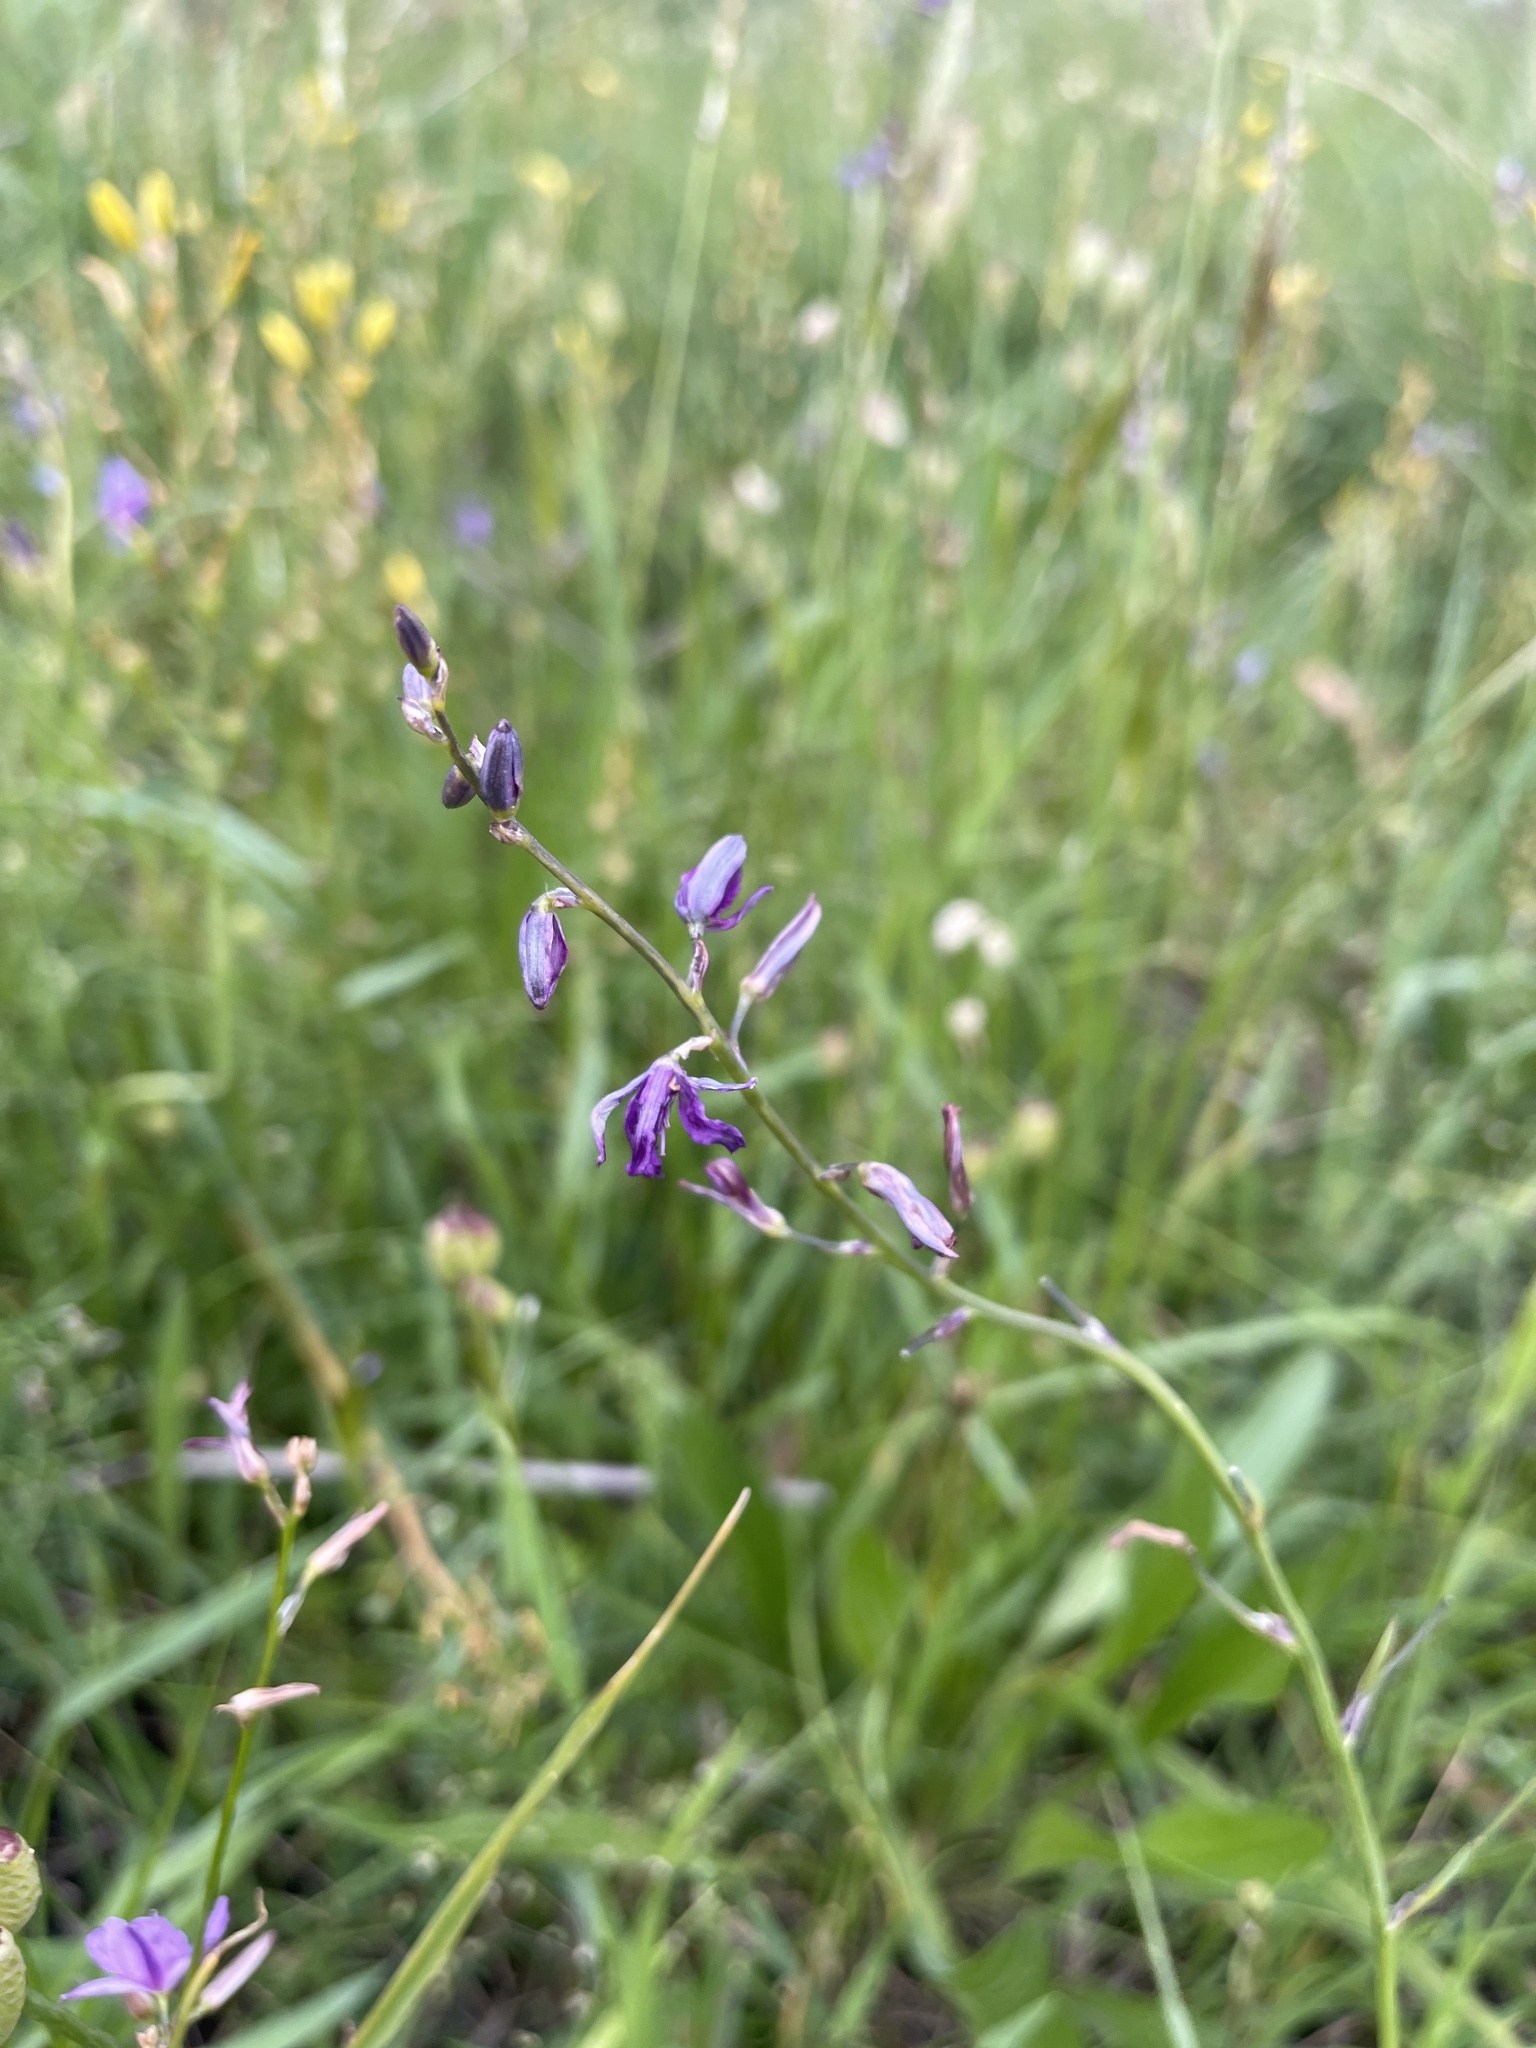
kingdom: Plantae
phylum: Tracheophyta
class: Liliopsida
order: Asparagales
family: Asparagaceae
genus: Arthropodium
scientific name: Arthropodium strictum
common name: Chocolate-lily
